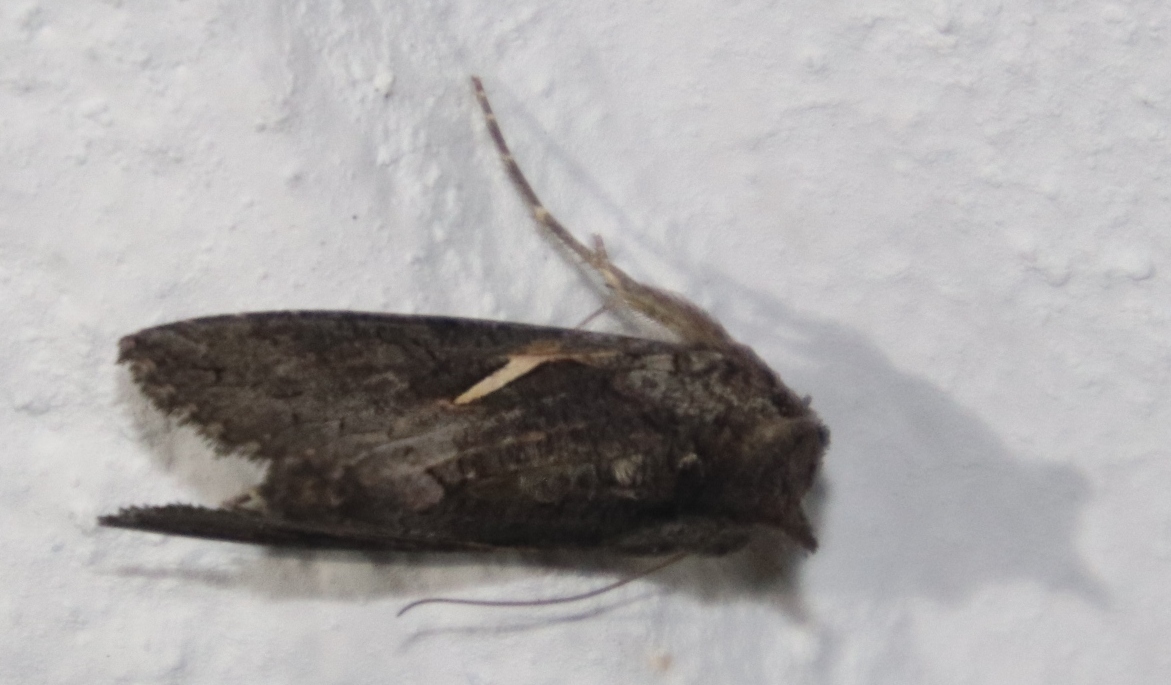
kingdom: Animalia
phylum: Arthropoda
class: Insecta
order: Lepidoptera
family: Noctuidae
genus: Vittaplusia
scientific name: Vittaplusia vittata
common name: Streaked plusia
